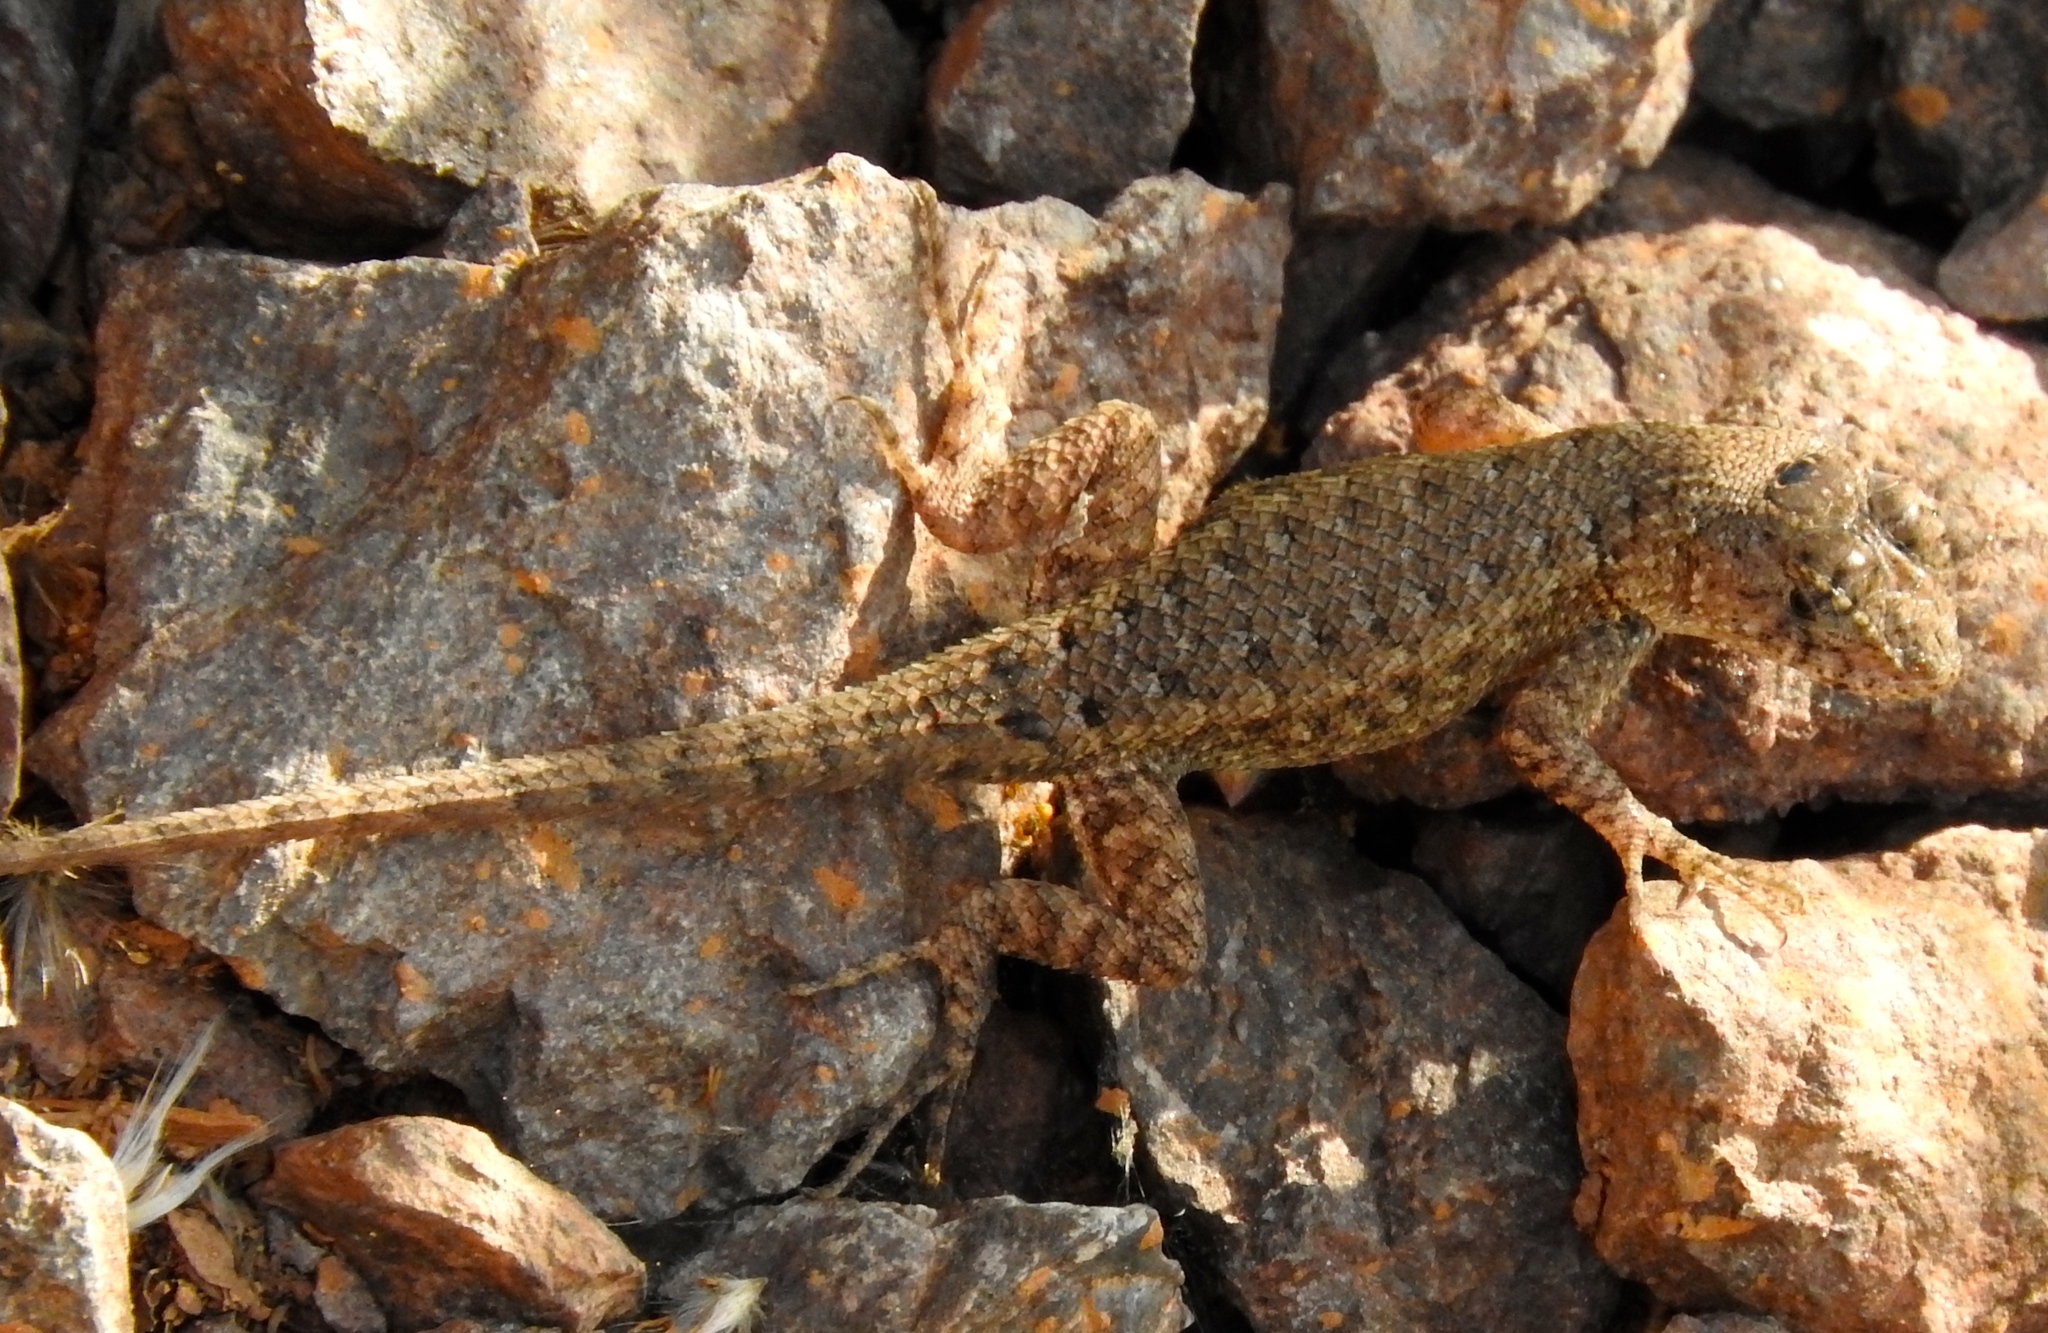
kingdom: Animalia
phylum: Chordata
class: Squamata
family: Phrynosomatidae
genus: Sceloporus
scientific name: Sceloporus nelsoni
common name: Nelson's spiny lizard
